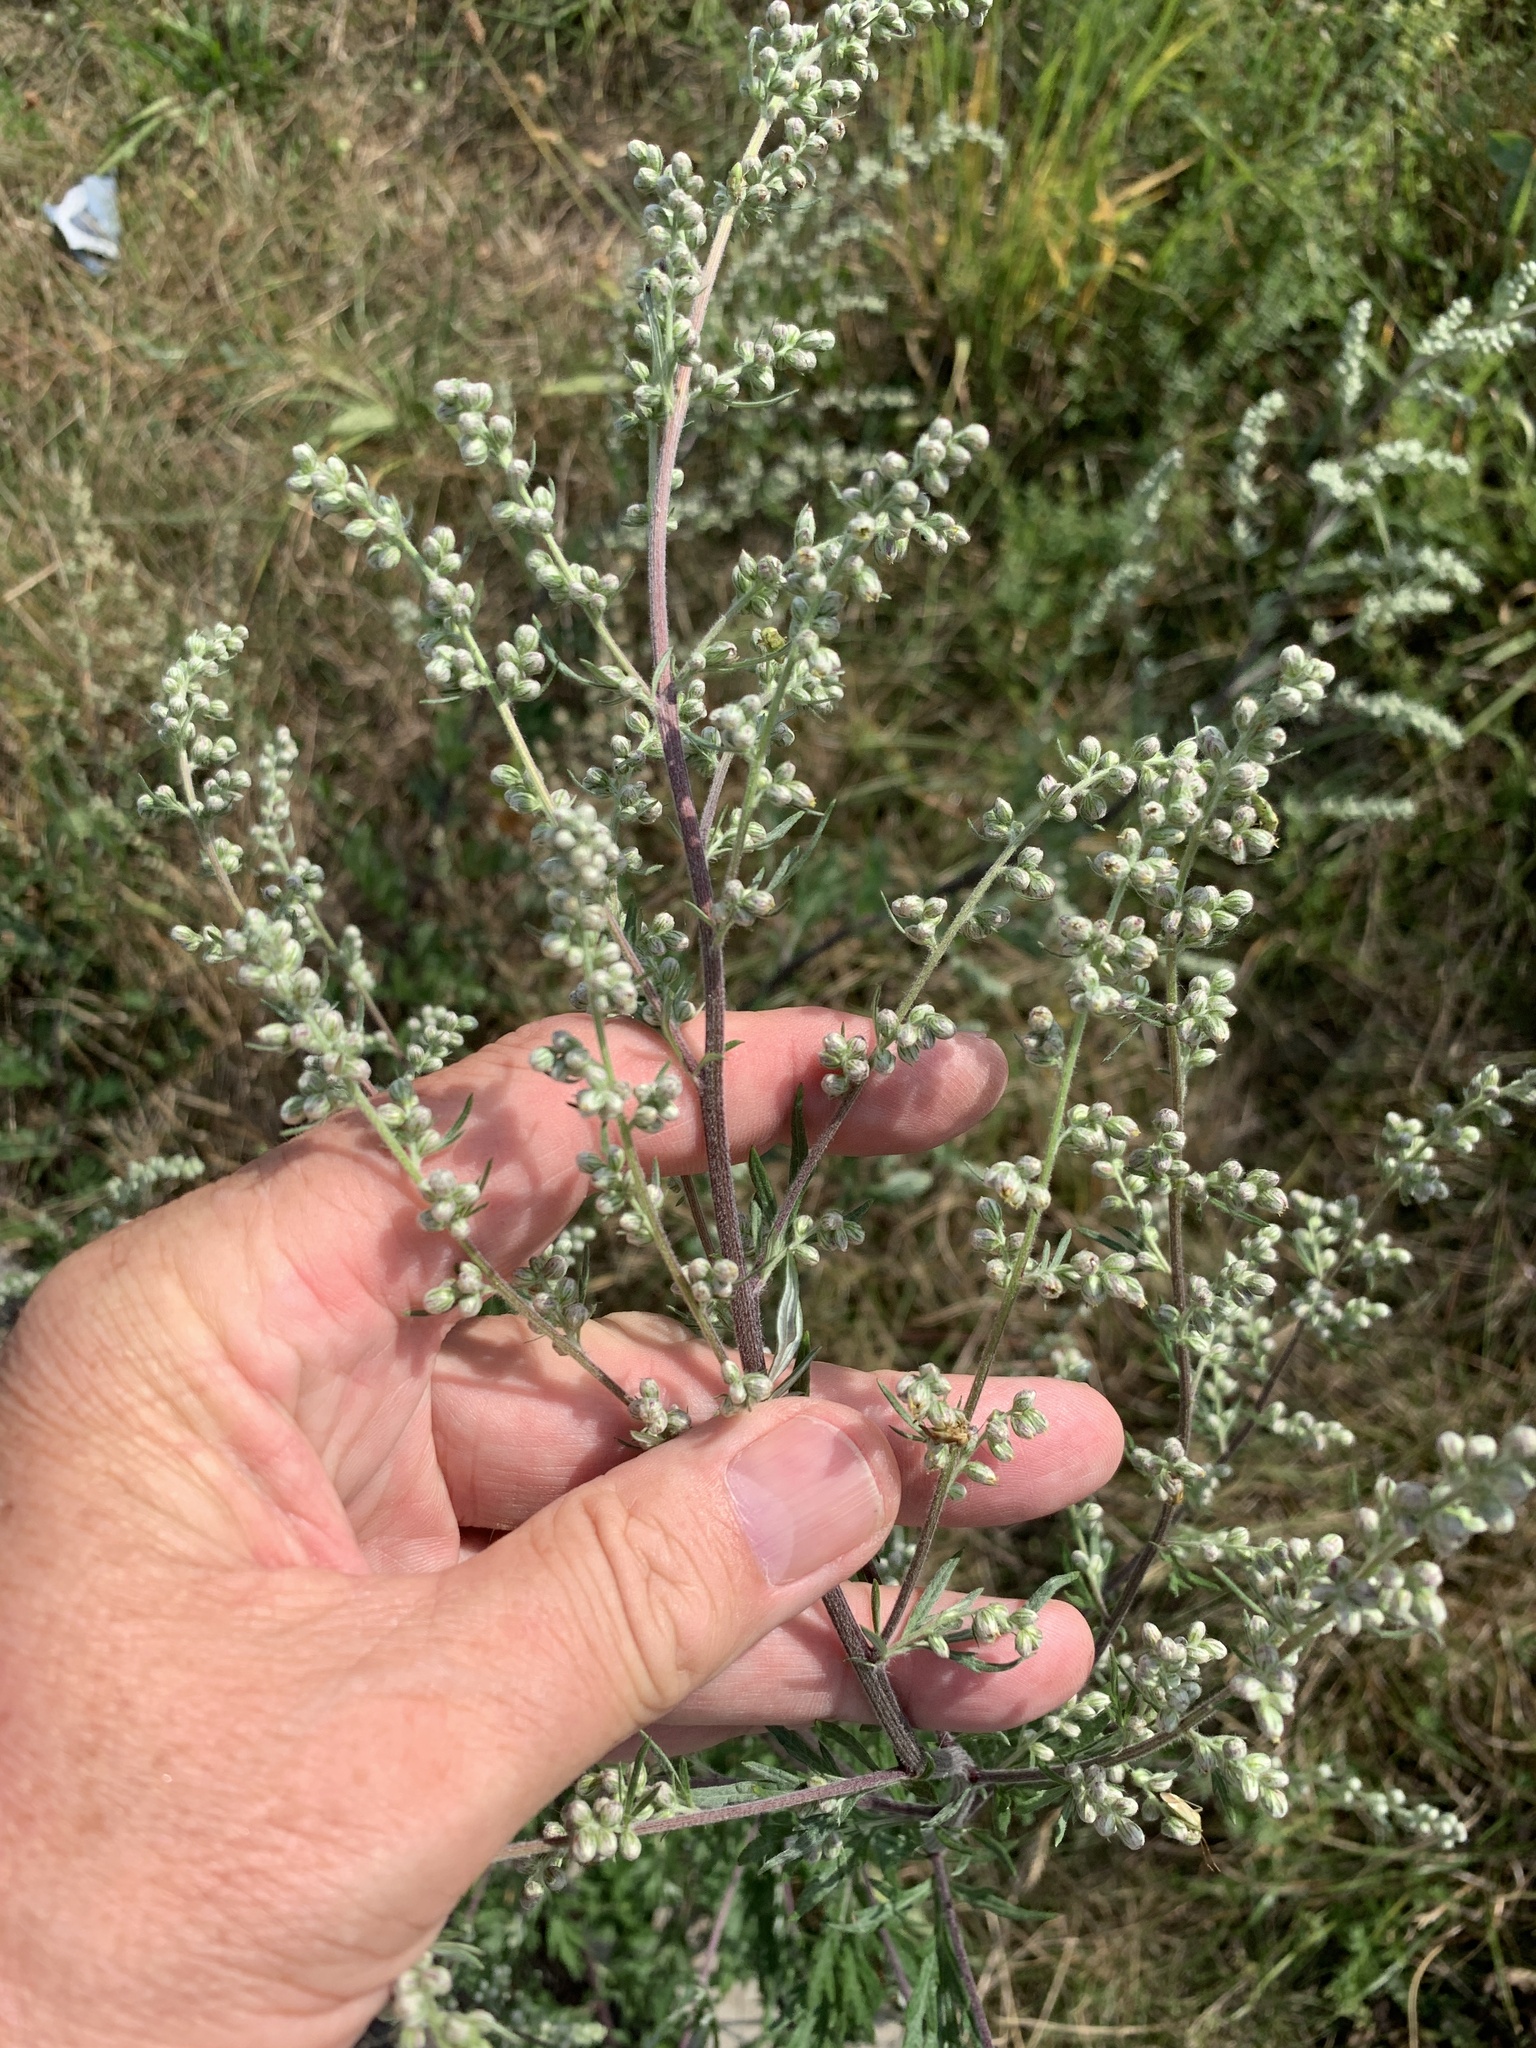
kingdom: Plantae
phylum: Tracheophyta
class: Magnoliopsida
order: Asterales
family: Asteraceae
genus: Artemisia
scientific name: Artemisia vulgaris
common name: Mugwort
